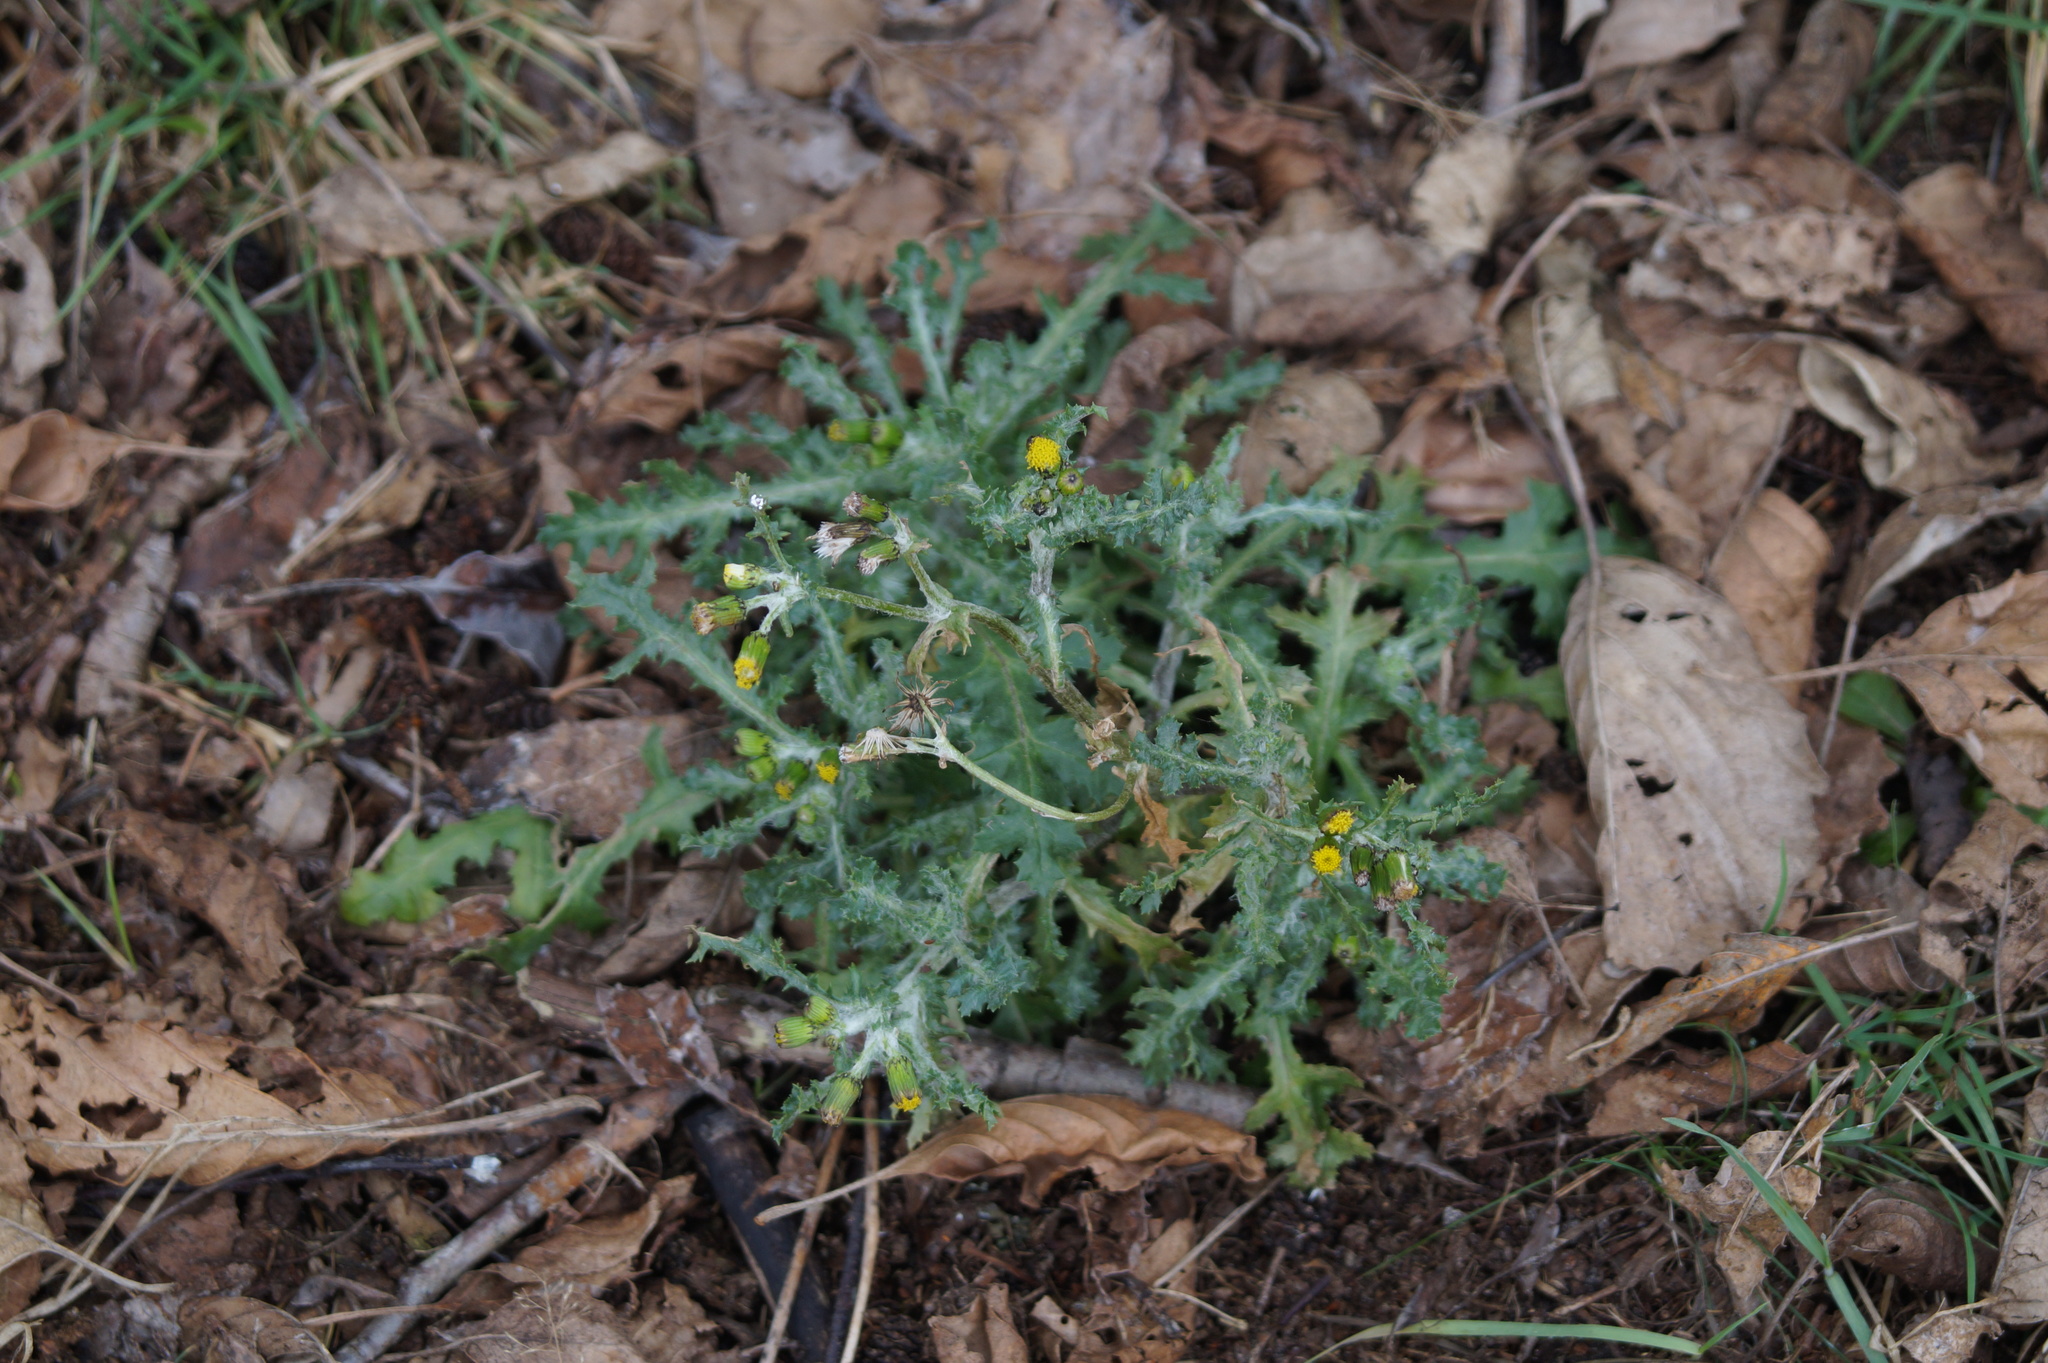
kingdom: Plantae
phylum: Tracheophyta
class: Magnoliopsida
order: Asterales
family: Asteraceae
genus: Senecio
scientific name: Senecio vulgaris
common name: Old-man-in-the-spring
